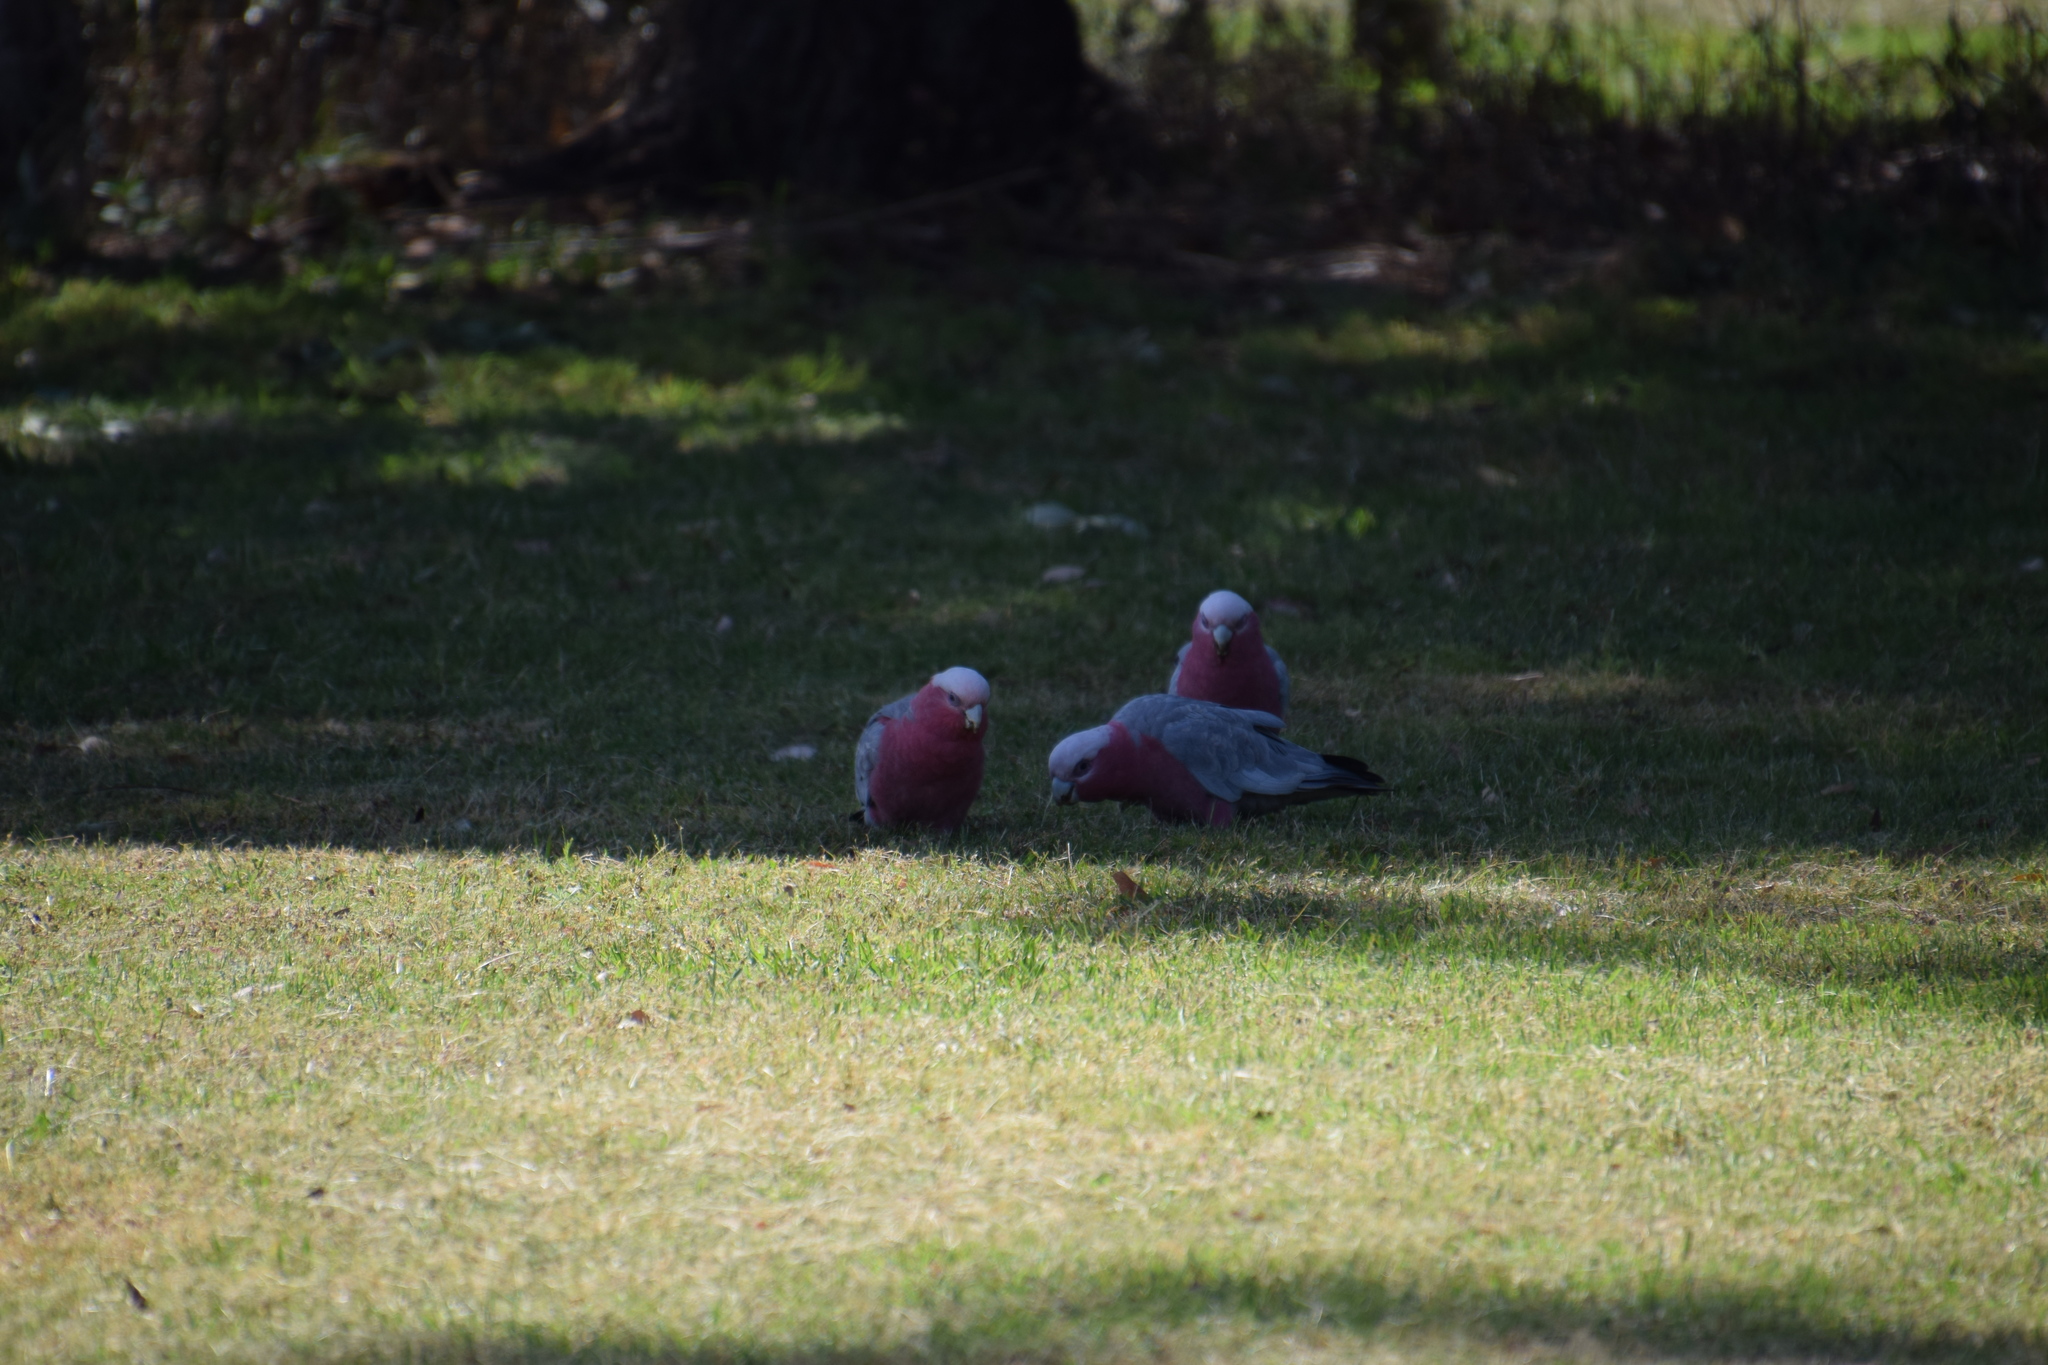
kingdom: Animalia
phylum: Chordata
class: Aves
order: Psittaciformes
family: Psittacidae
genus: Eolophus
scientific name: Eolophus roseicapilla
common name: Galah
